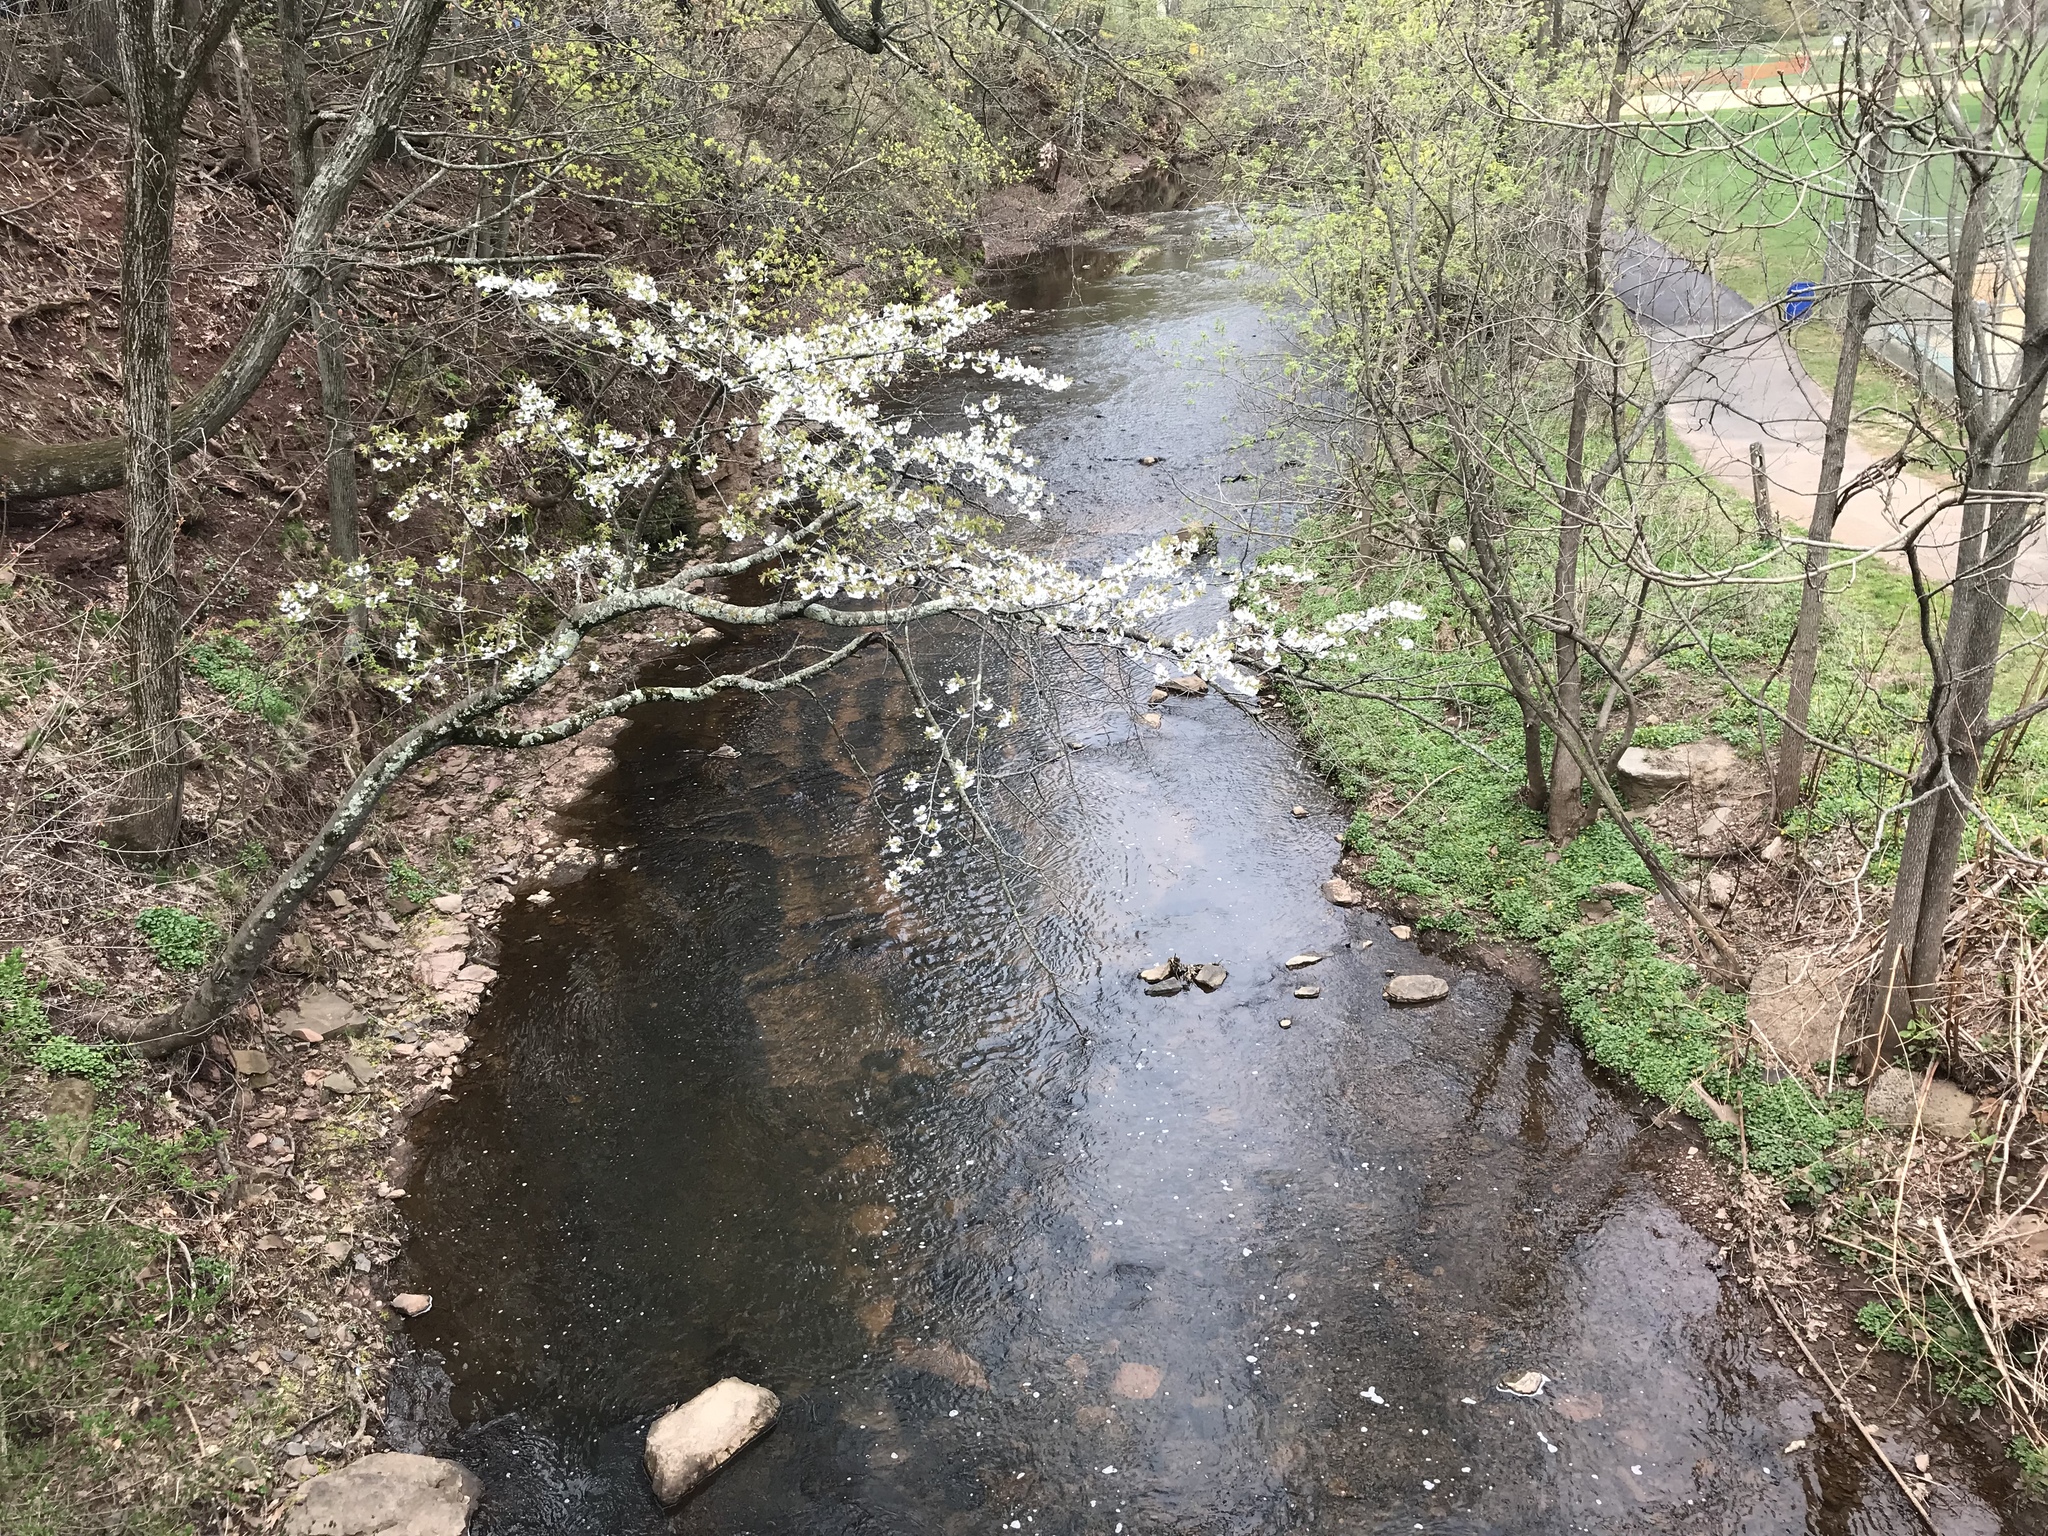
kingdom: Plantae
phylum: Tracheophyta
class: Magnoliopsida
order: Rosales
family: Rosaceae
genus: Prunus
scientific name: Prunus avium
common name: Sweet cherry
